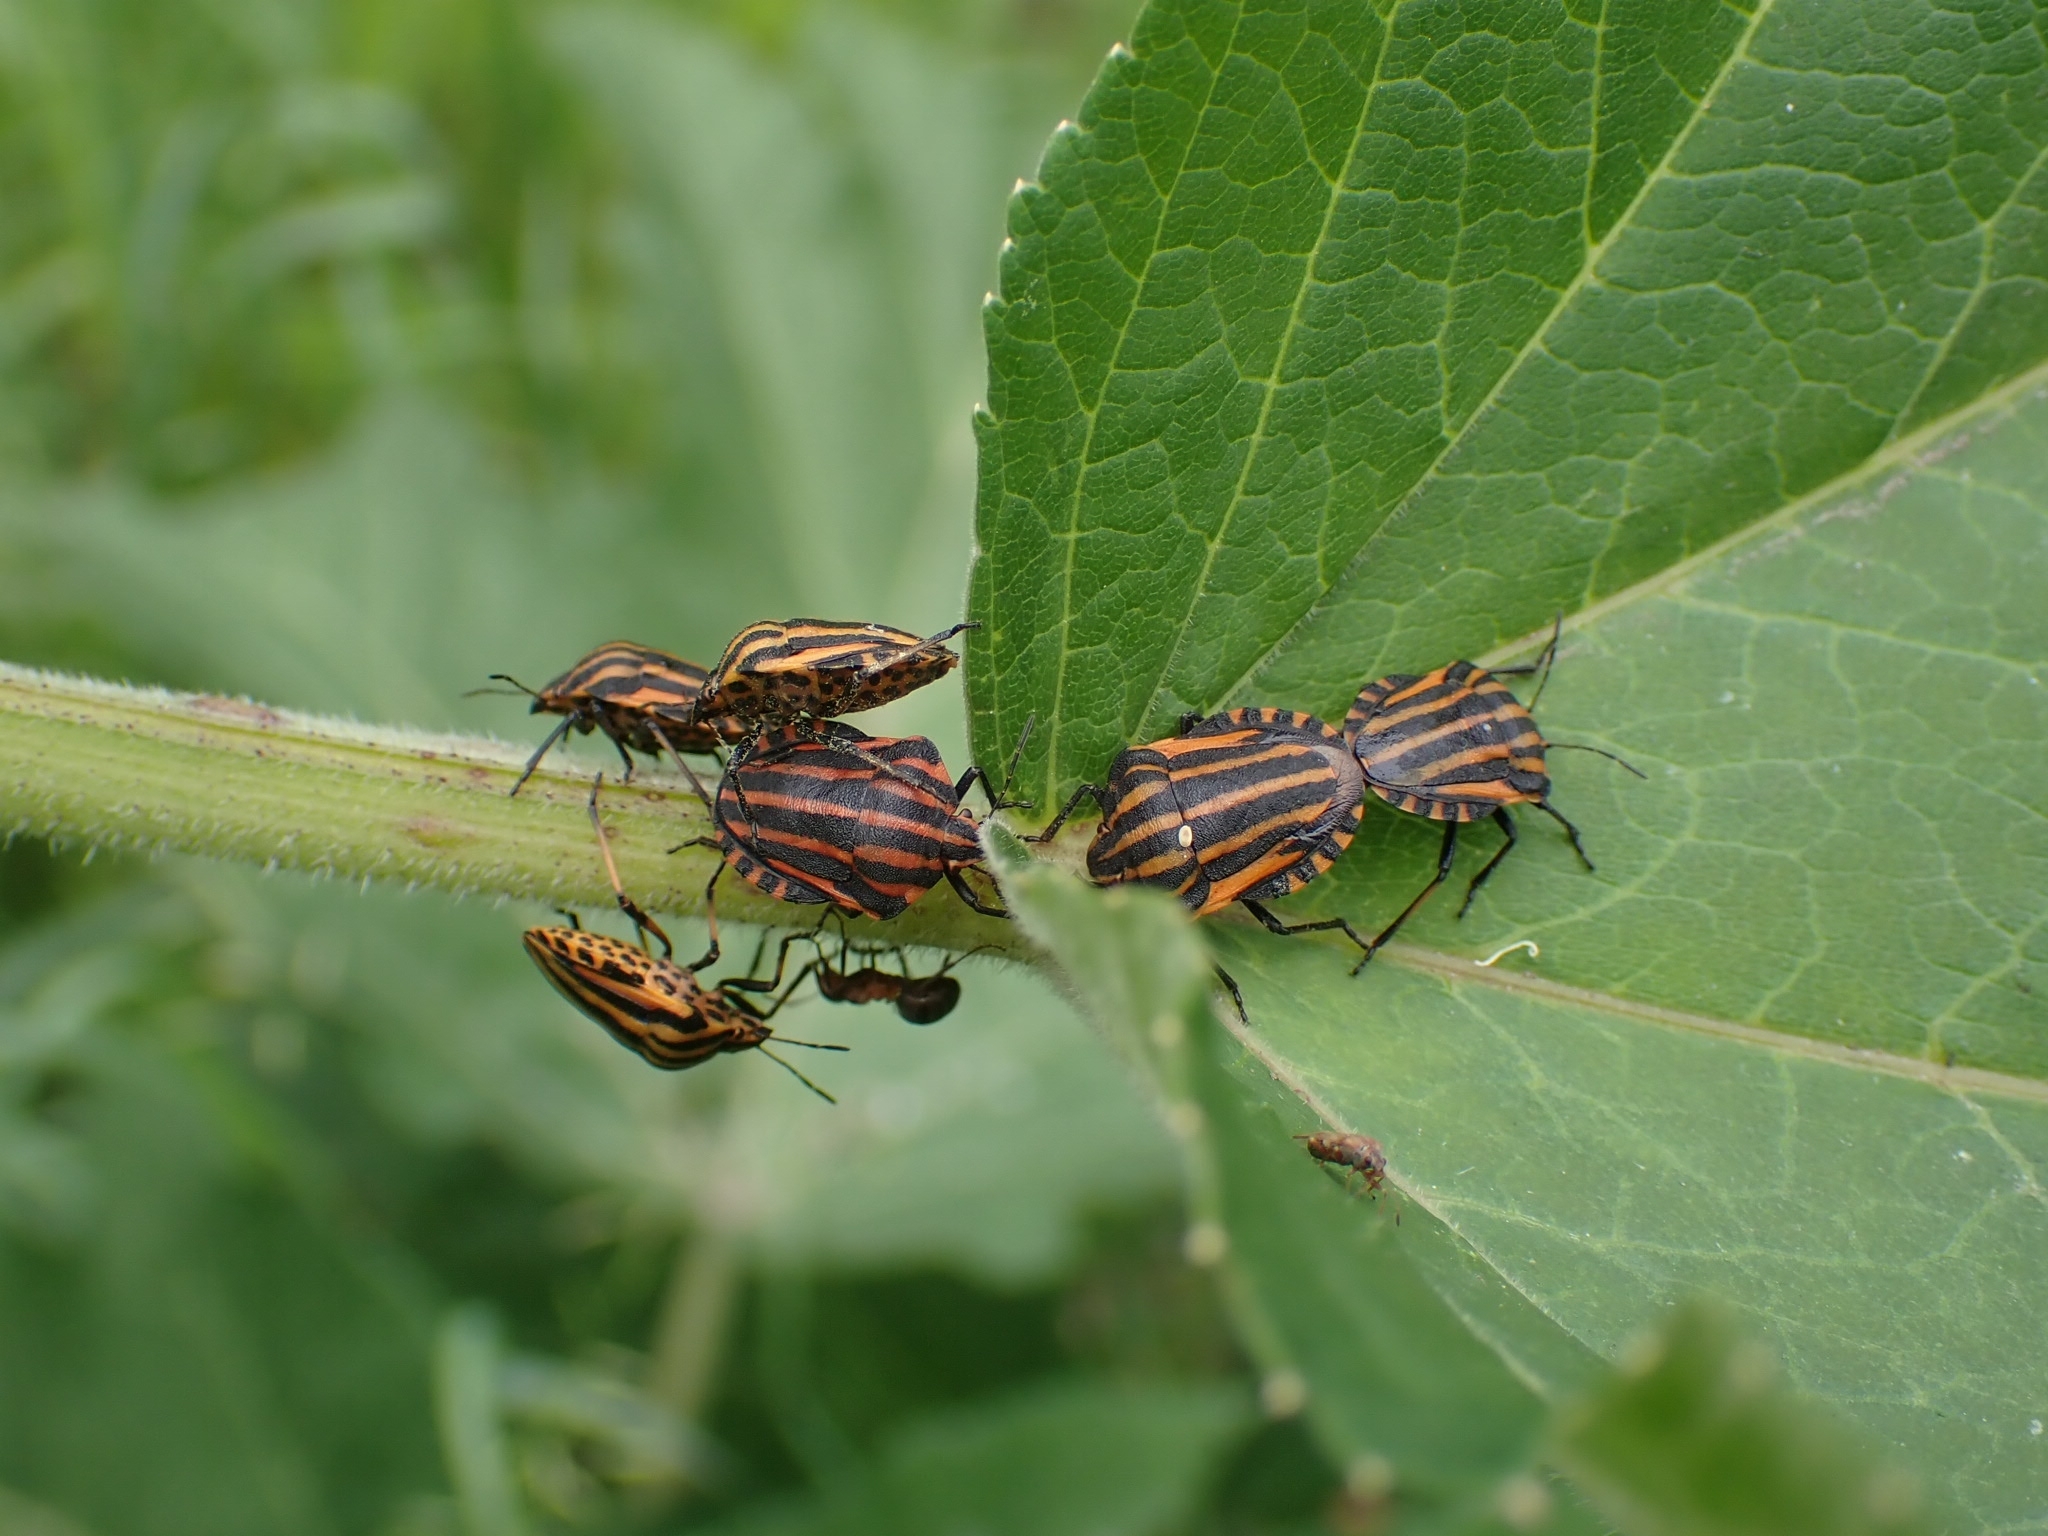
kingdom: Animalia
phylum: Arthropoda
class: Insecta
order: Hemiptera
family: Pentatomidae
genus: Graphosoma
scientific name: Graphosoma italicum
